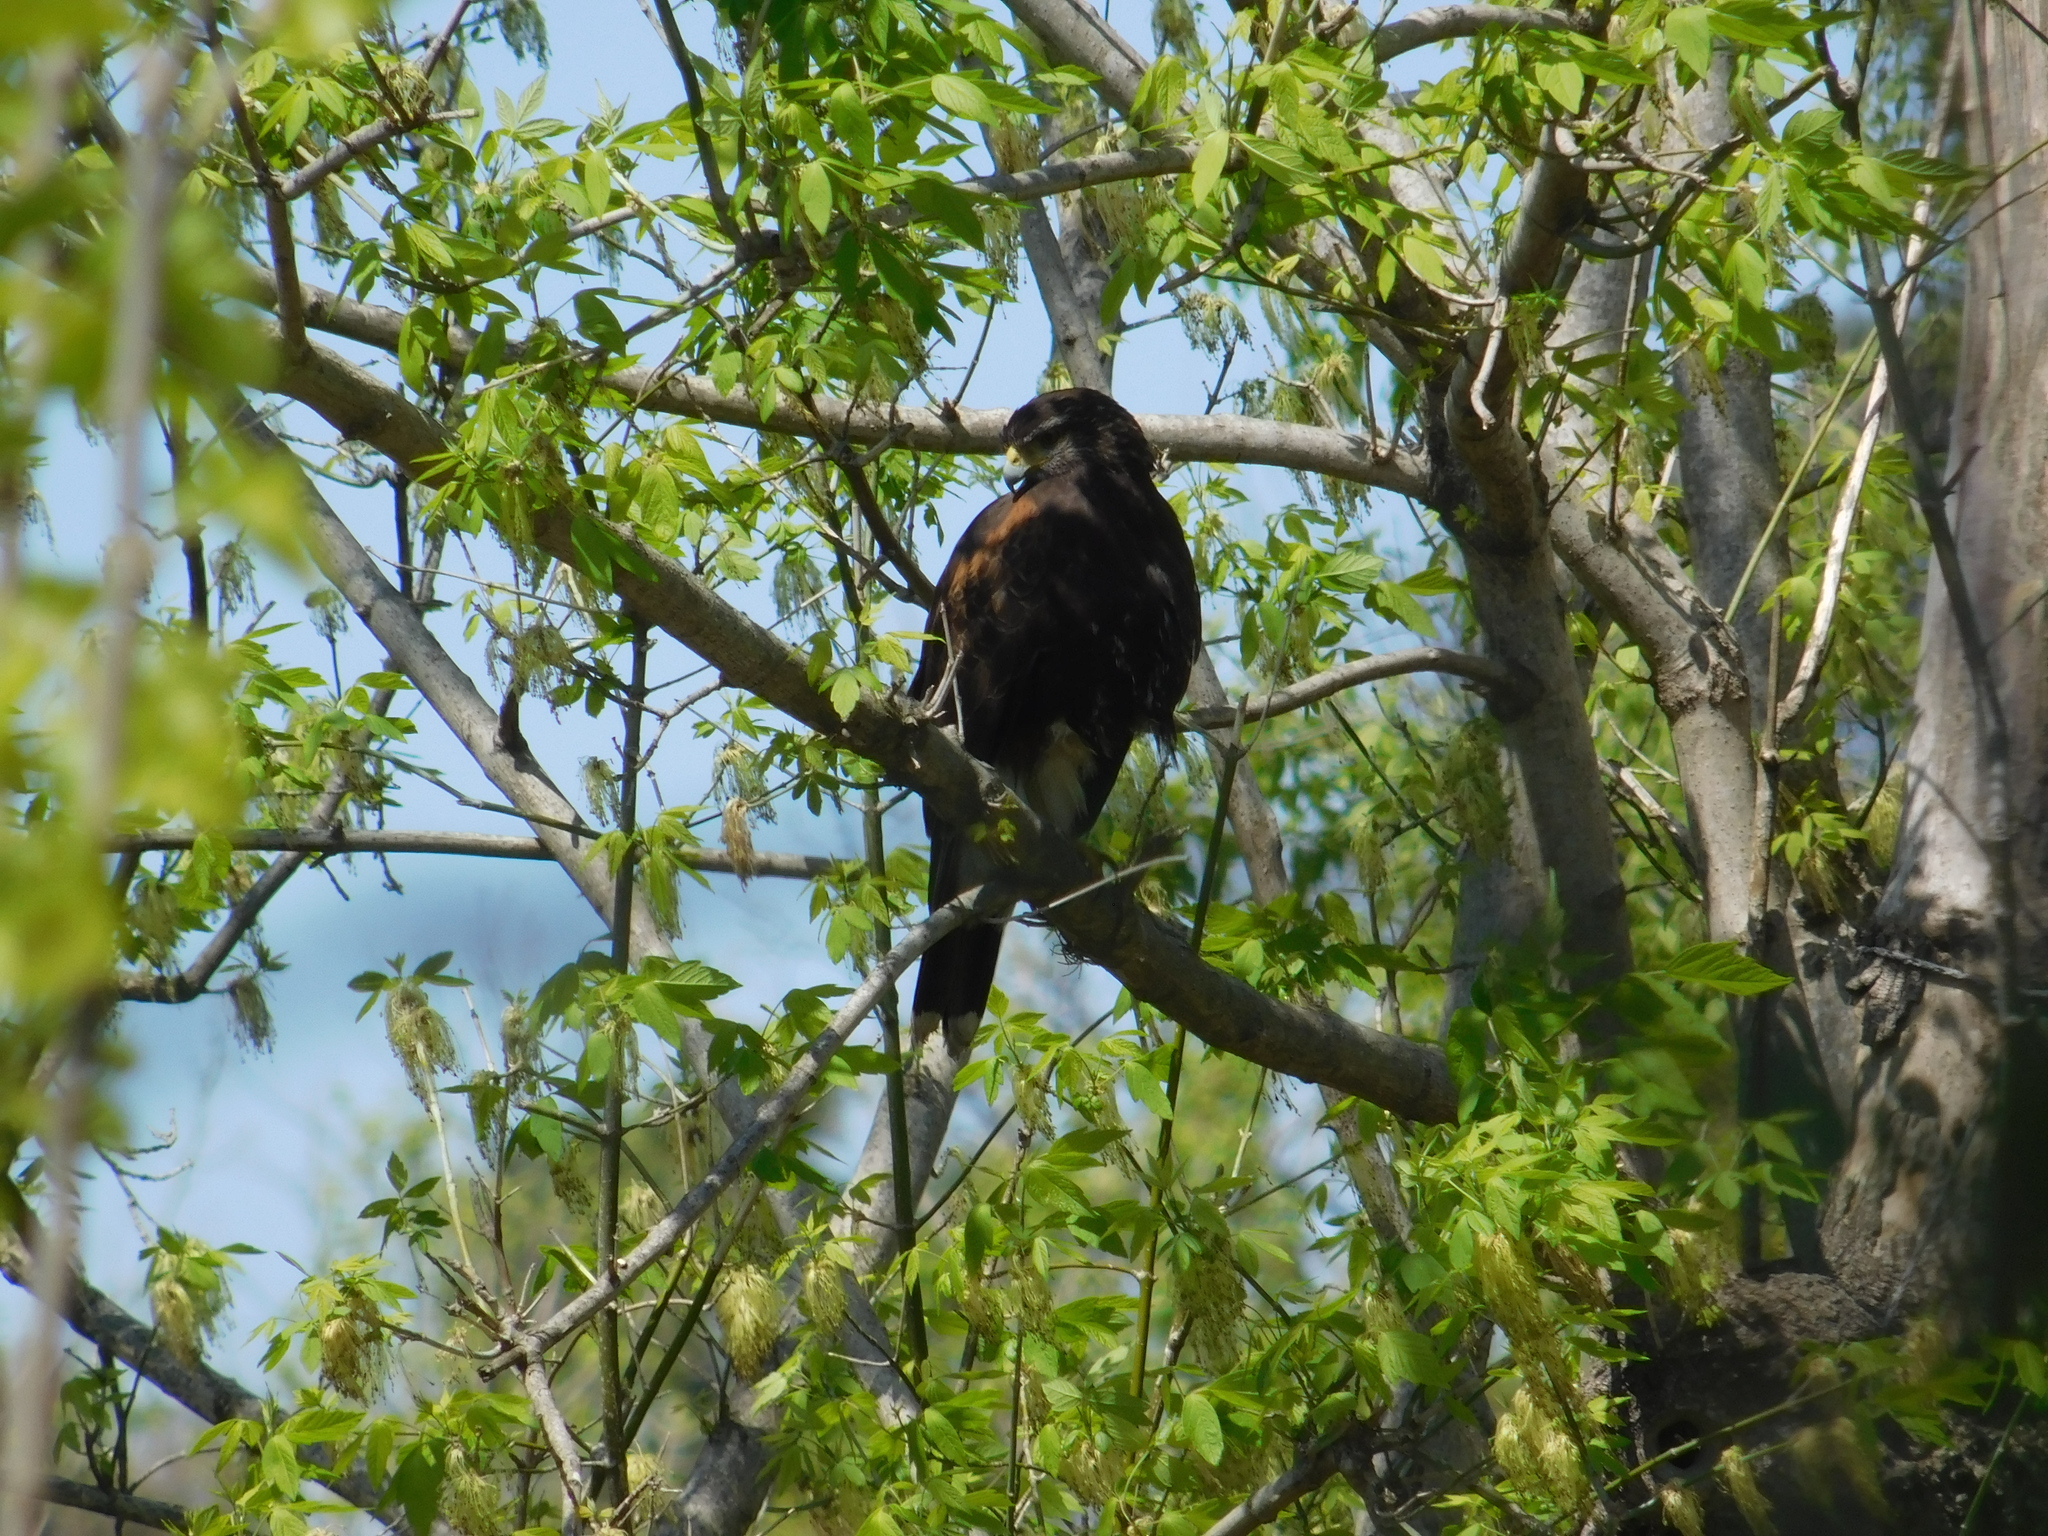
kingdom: Animalia
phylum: Chordata
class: Aves
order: Accipitriformes
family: Accipitridae
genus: Parabuteo
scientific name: Parabuteo unicinctus
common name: Harris's hawk
